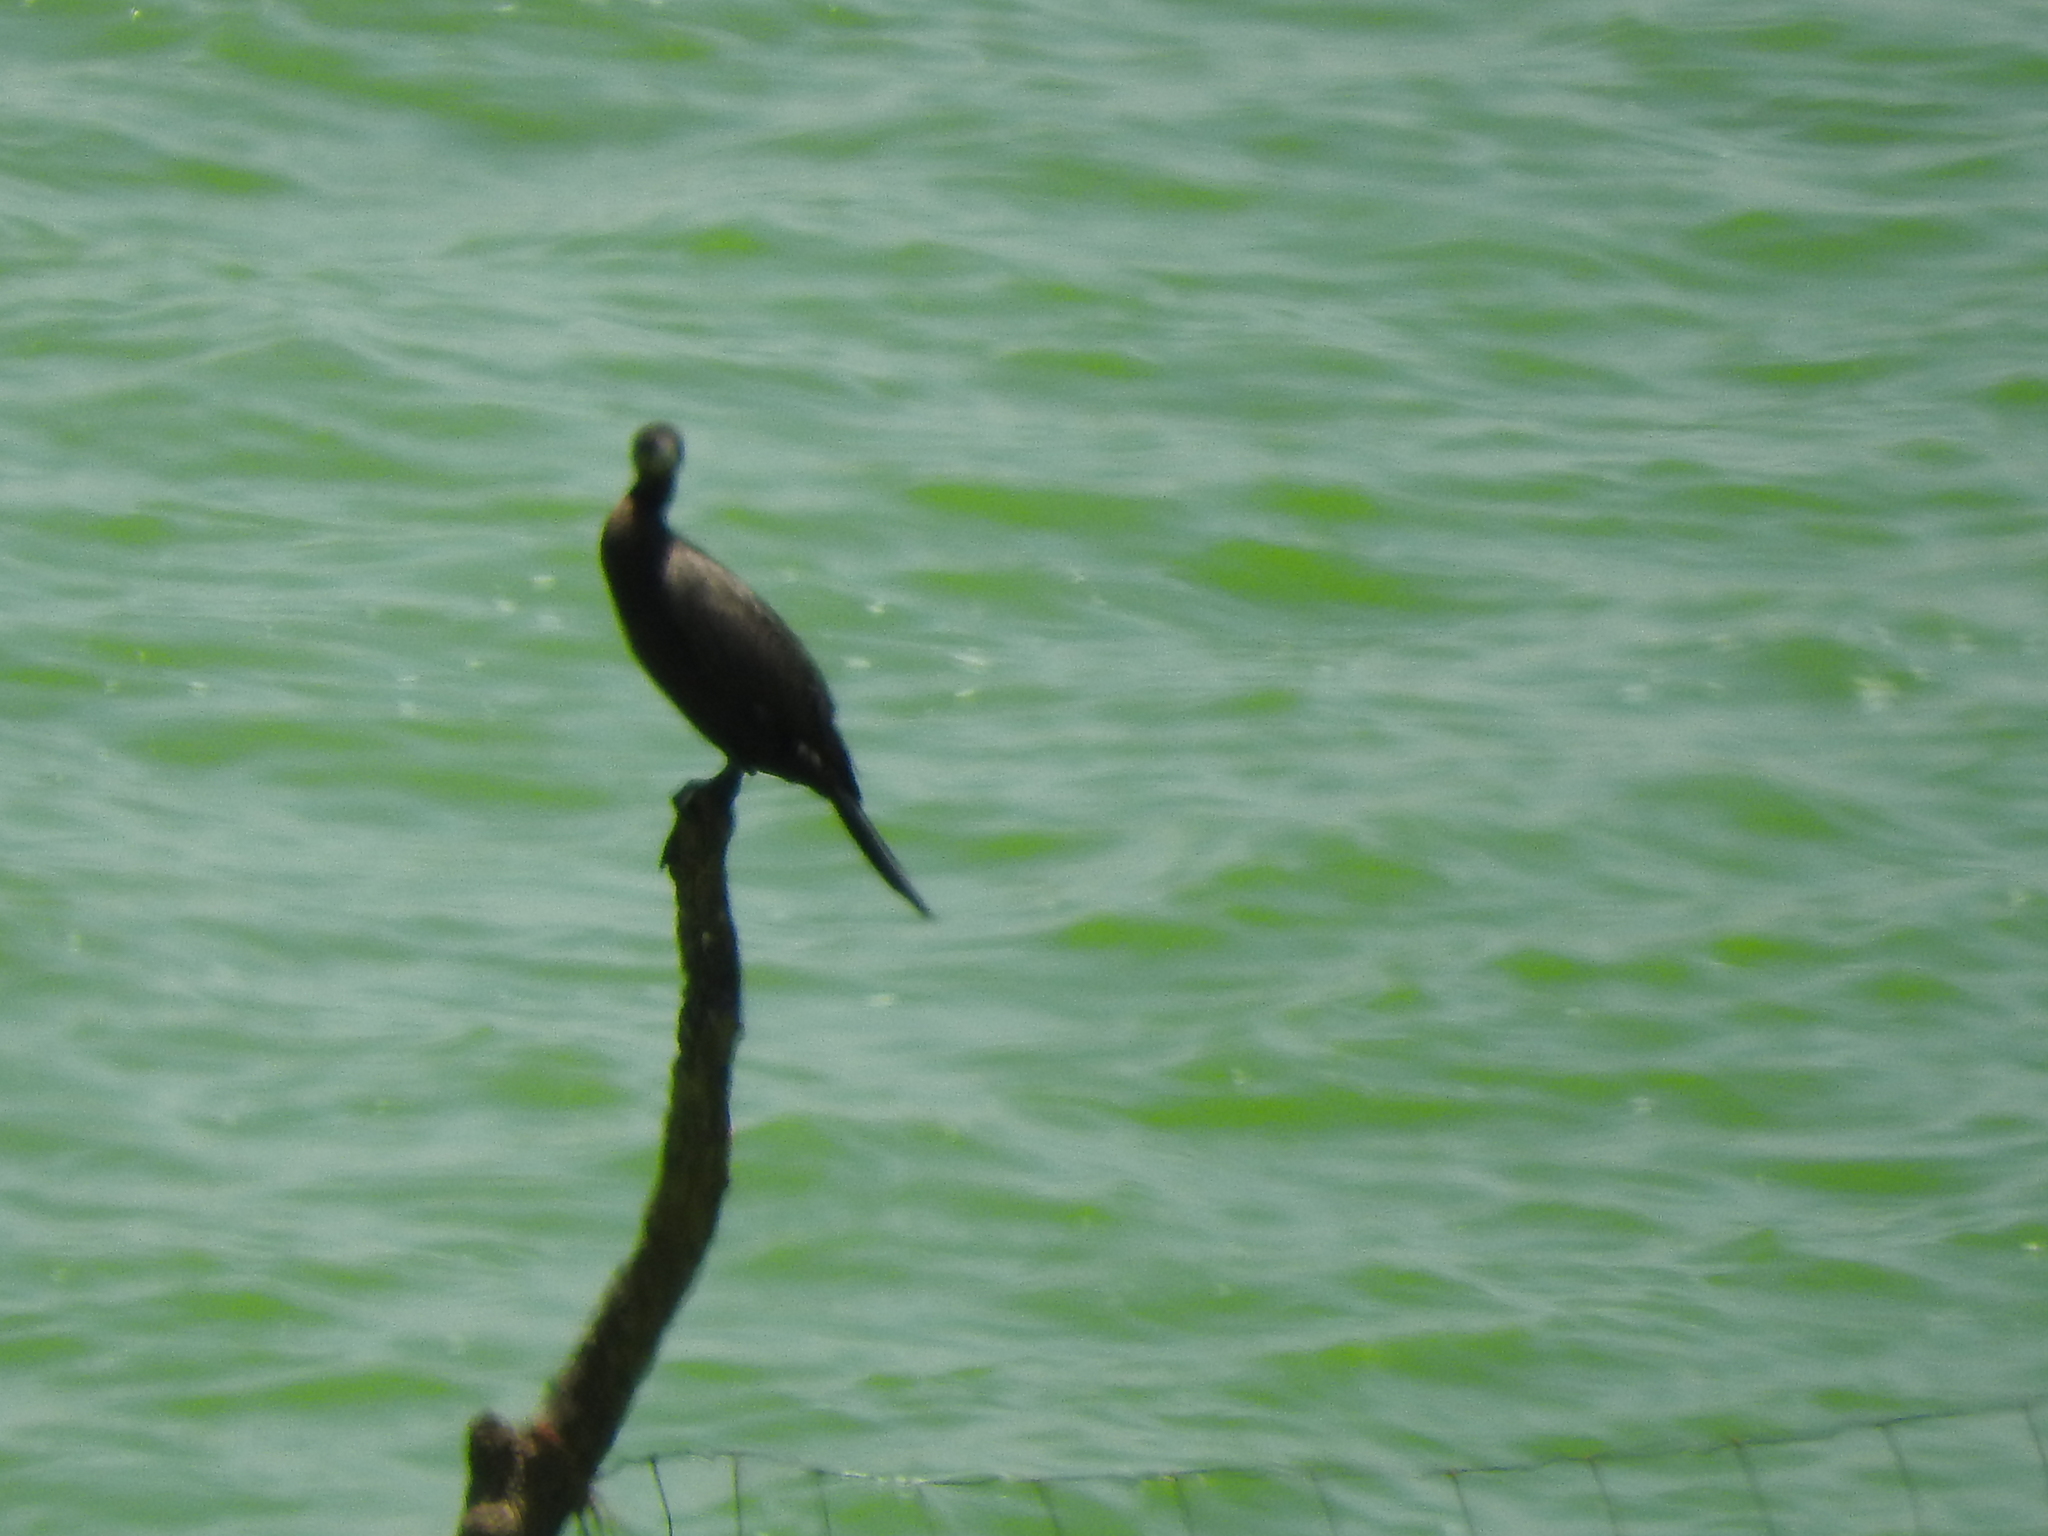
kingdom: Animalia
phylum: Chordata
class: Aves
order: Suliformes
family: Phalacrocoracidae
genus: Phalacrocorax
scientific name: Phalacrocorax brasilianus
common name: Neotropic cormorant
